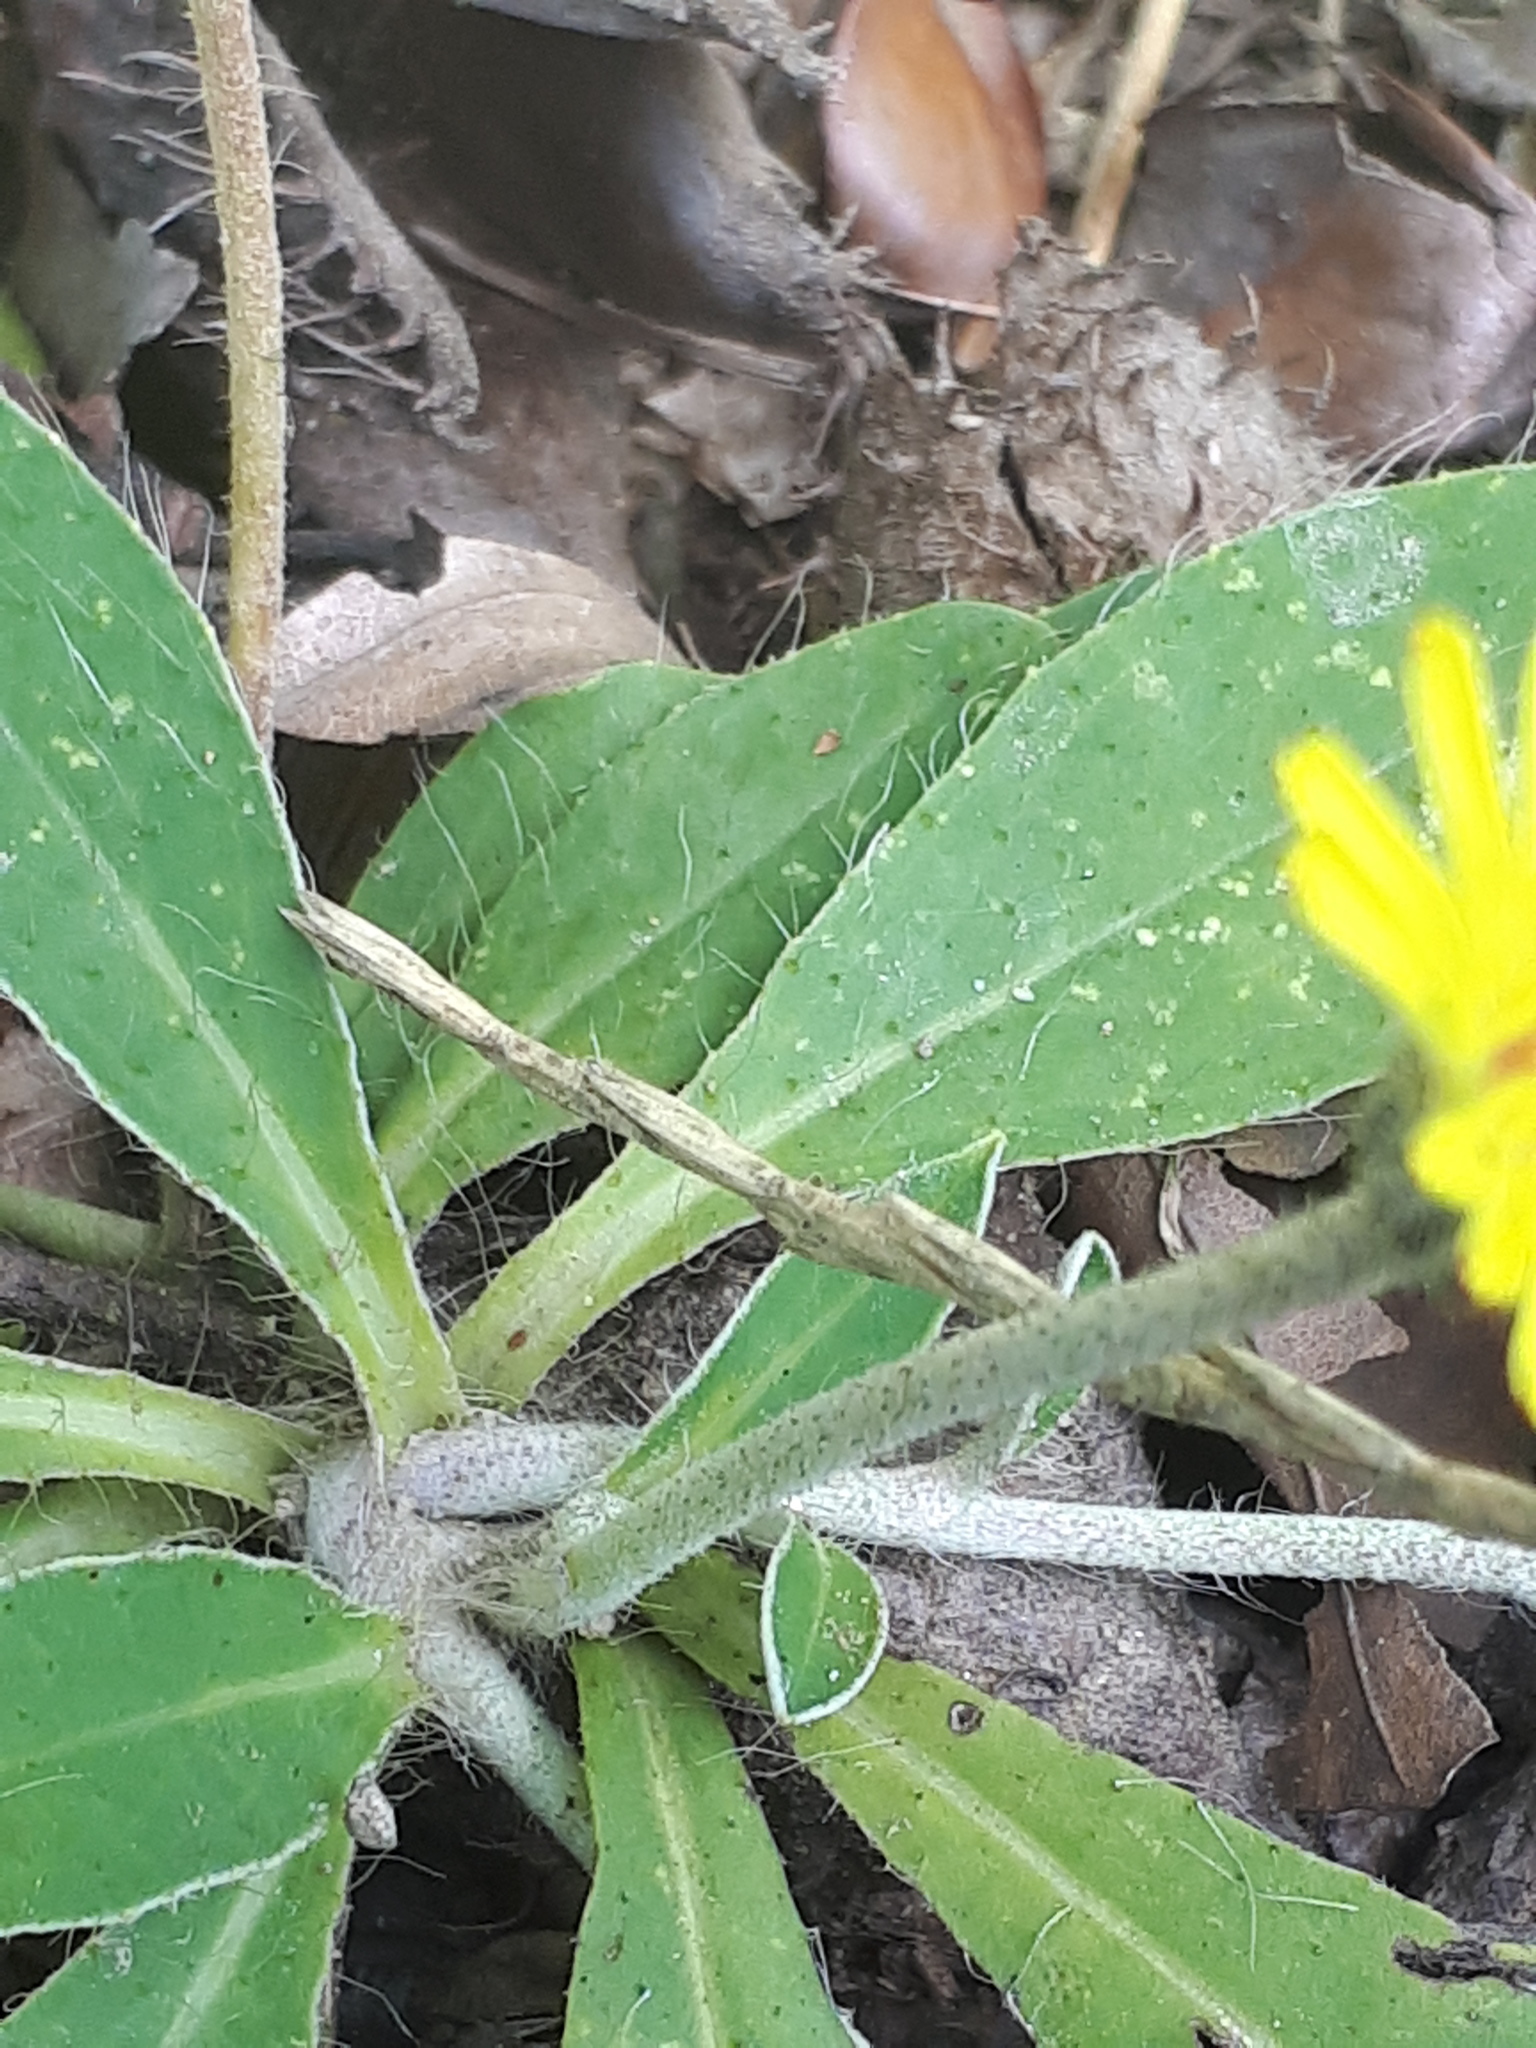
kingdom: Plantae
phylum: Tracheophyta
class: Magnoliopsida
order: Asterales
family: Asteraceae
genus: Pilosella
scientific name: Pilosella officinarum
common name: Mouse-ear hawkweed
